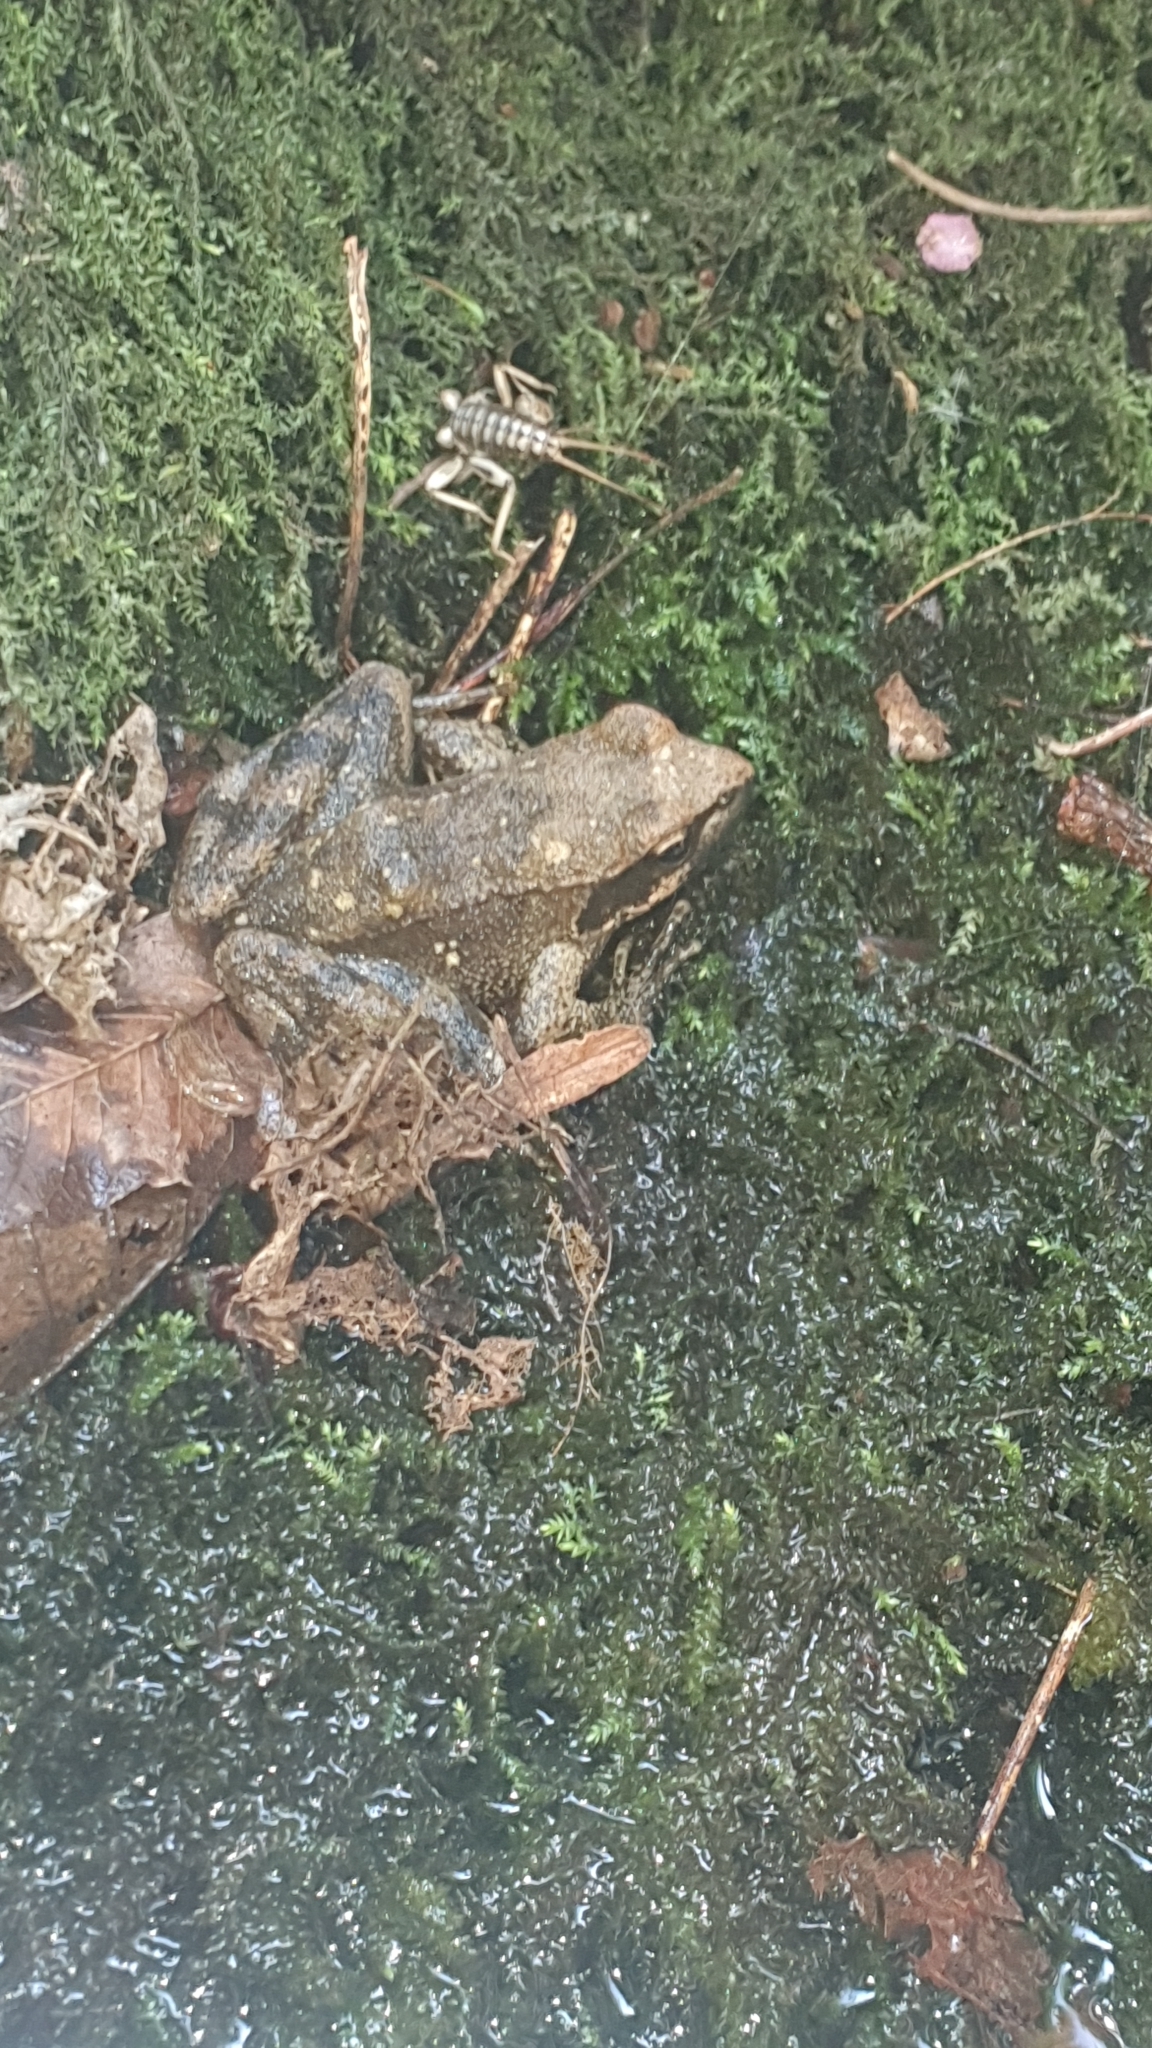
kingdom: Animalia
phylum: Chordata
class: Amphibia
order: Anura
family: Ranidae
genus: Rana
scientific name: Rana italica
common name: Italian stream frog
